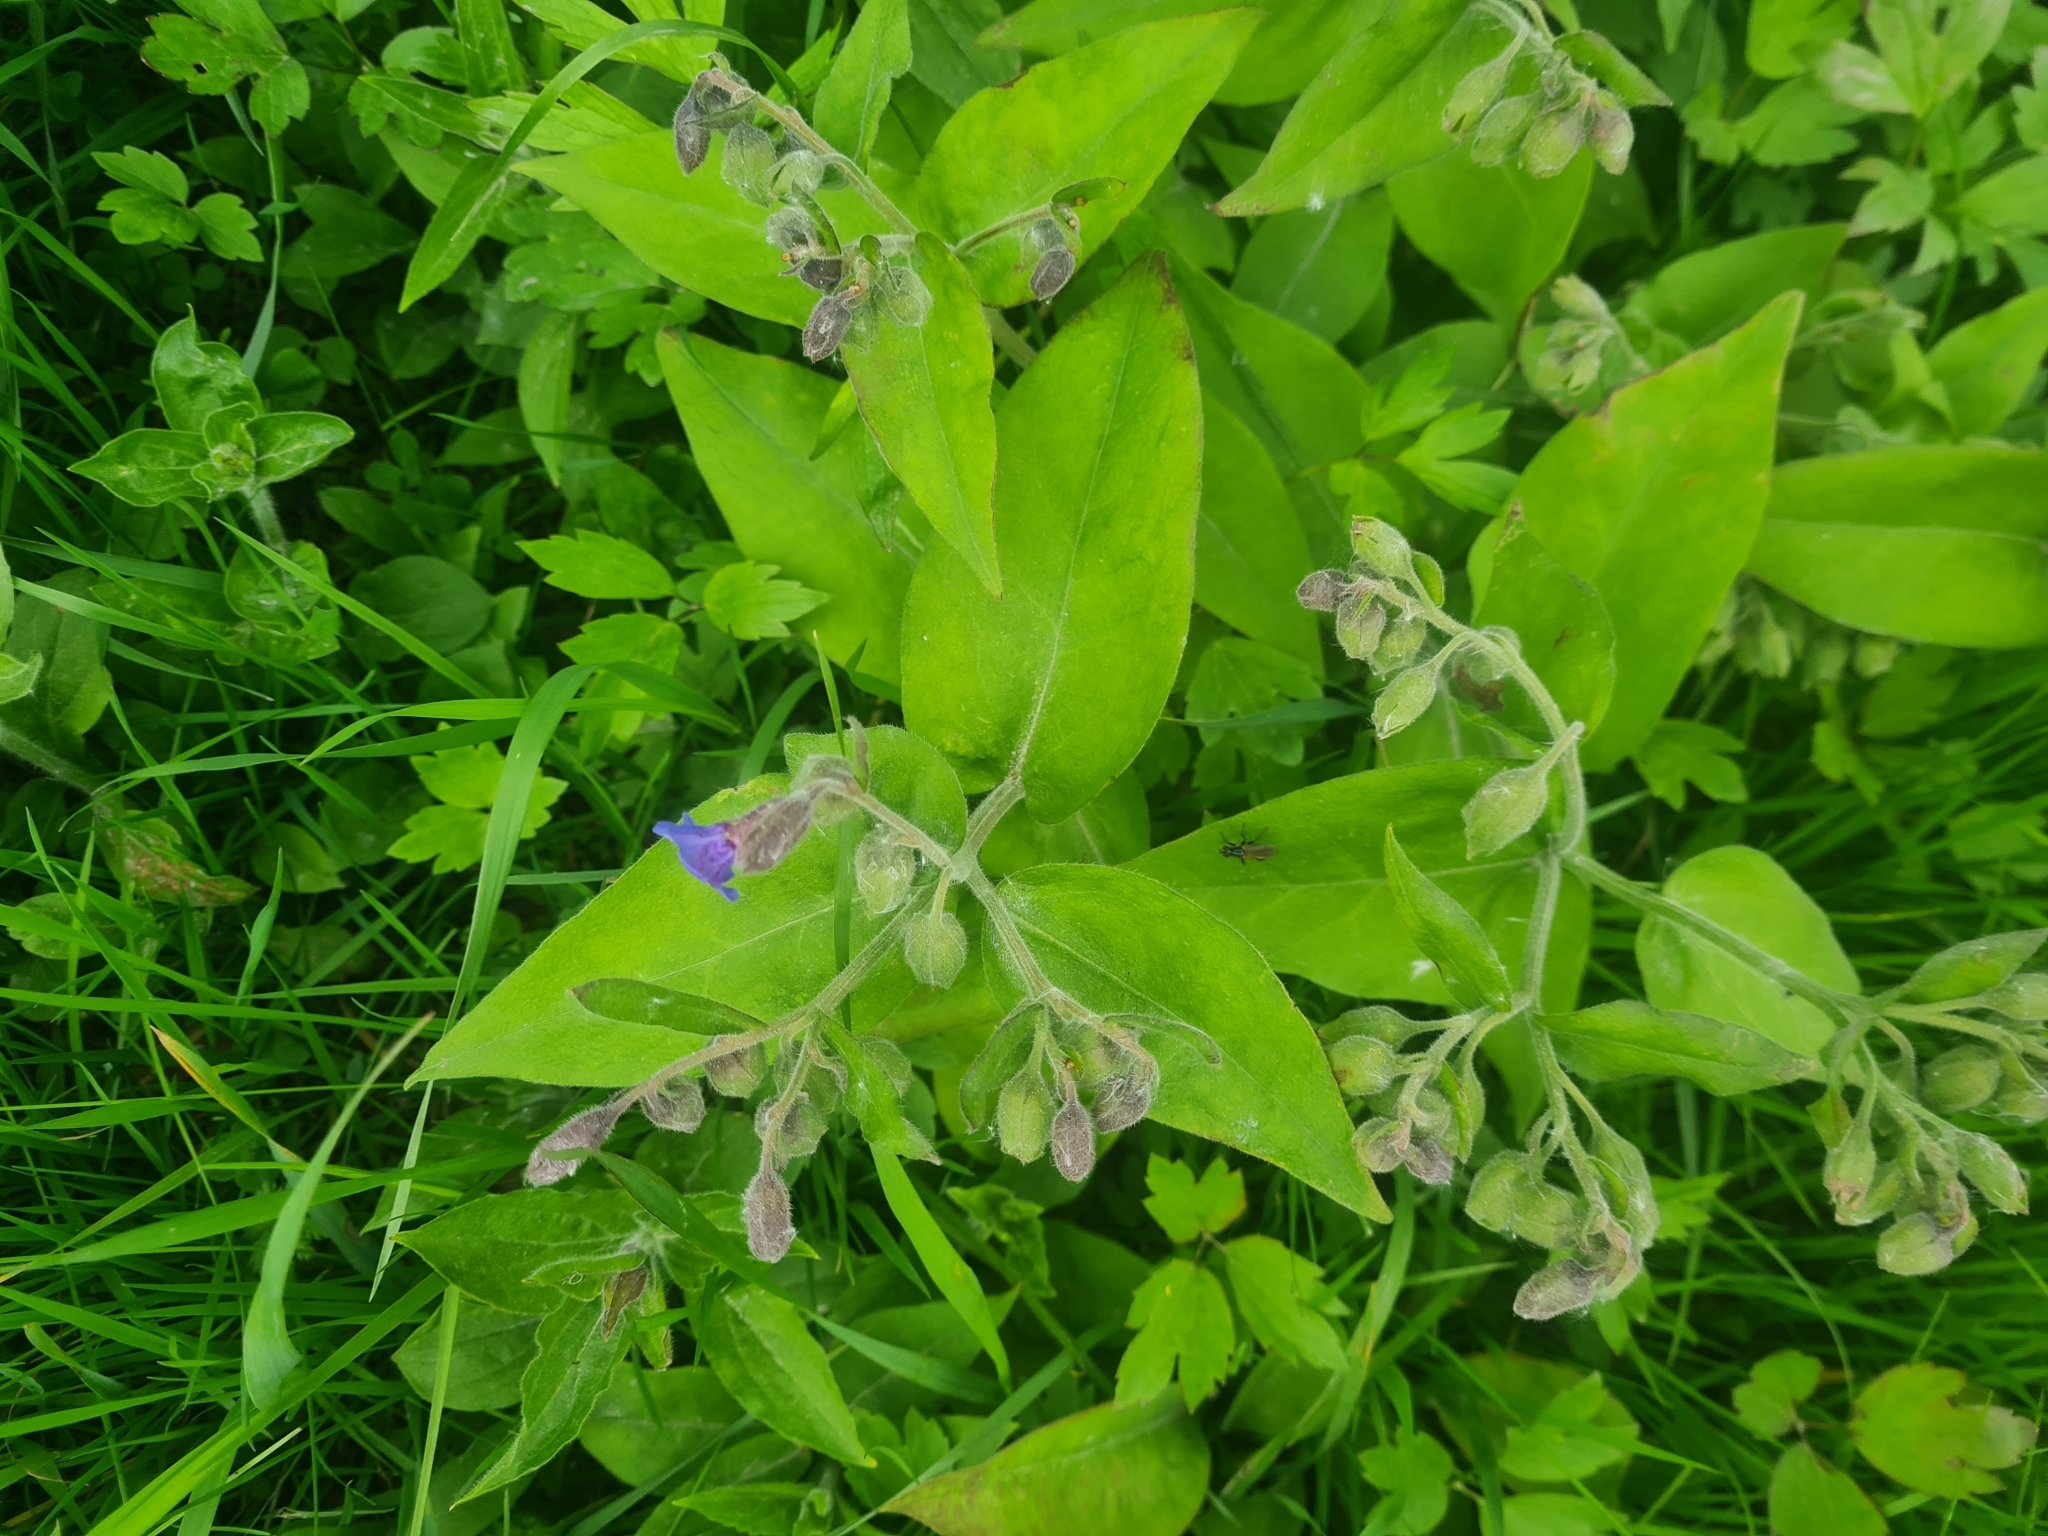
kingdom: Plantae
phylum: Tracheophyta
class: Magnoliopsida
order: Boraginales
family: Boraginaceae
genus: Pulmonaria
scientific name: Pulmonaria mollis
